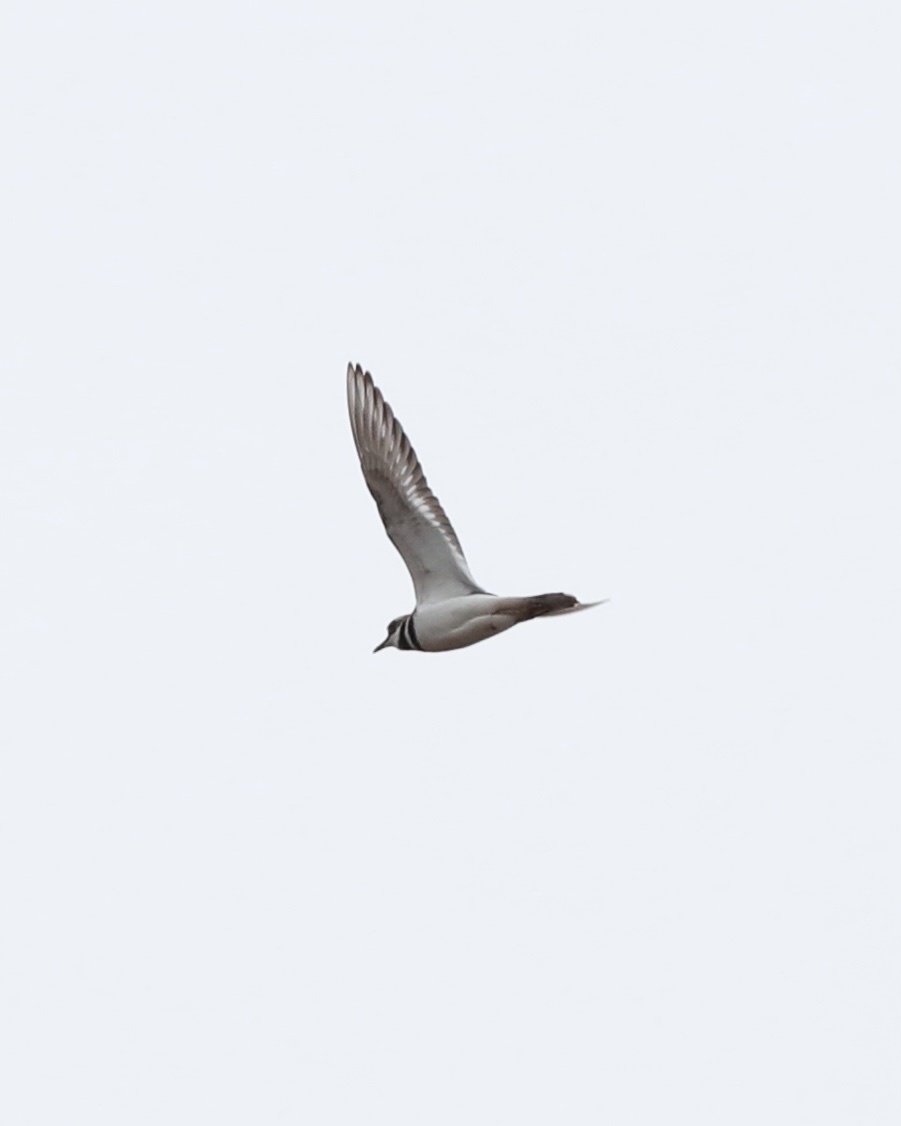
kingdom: Animalia
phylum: Chordata
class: Aves
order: Charadriiformes
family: Charadriidae
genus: Charadrius
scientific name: Charadrius vociferus
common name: Killdeer
